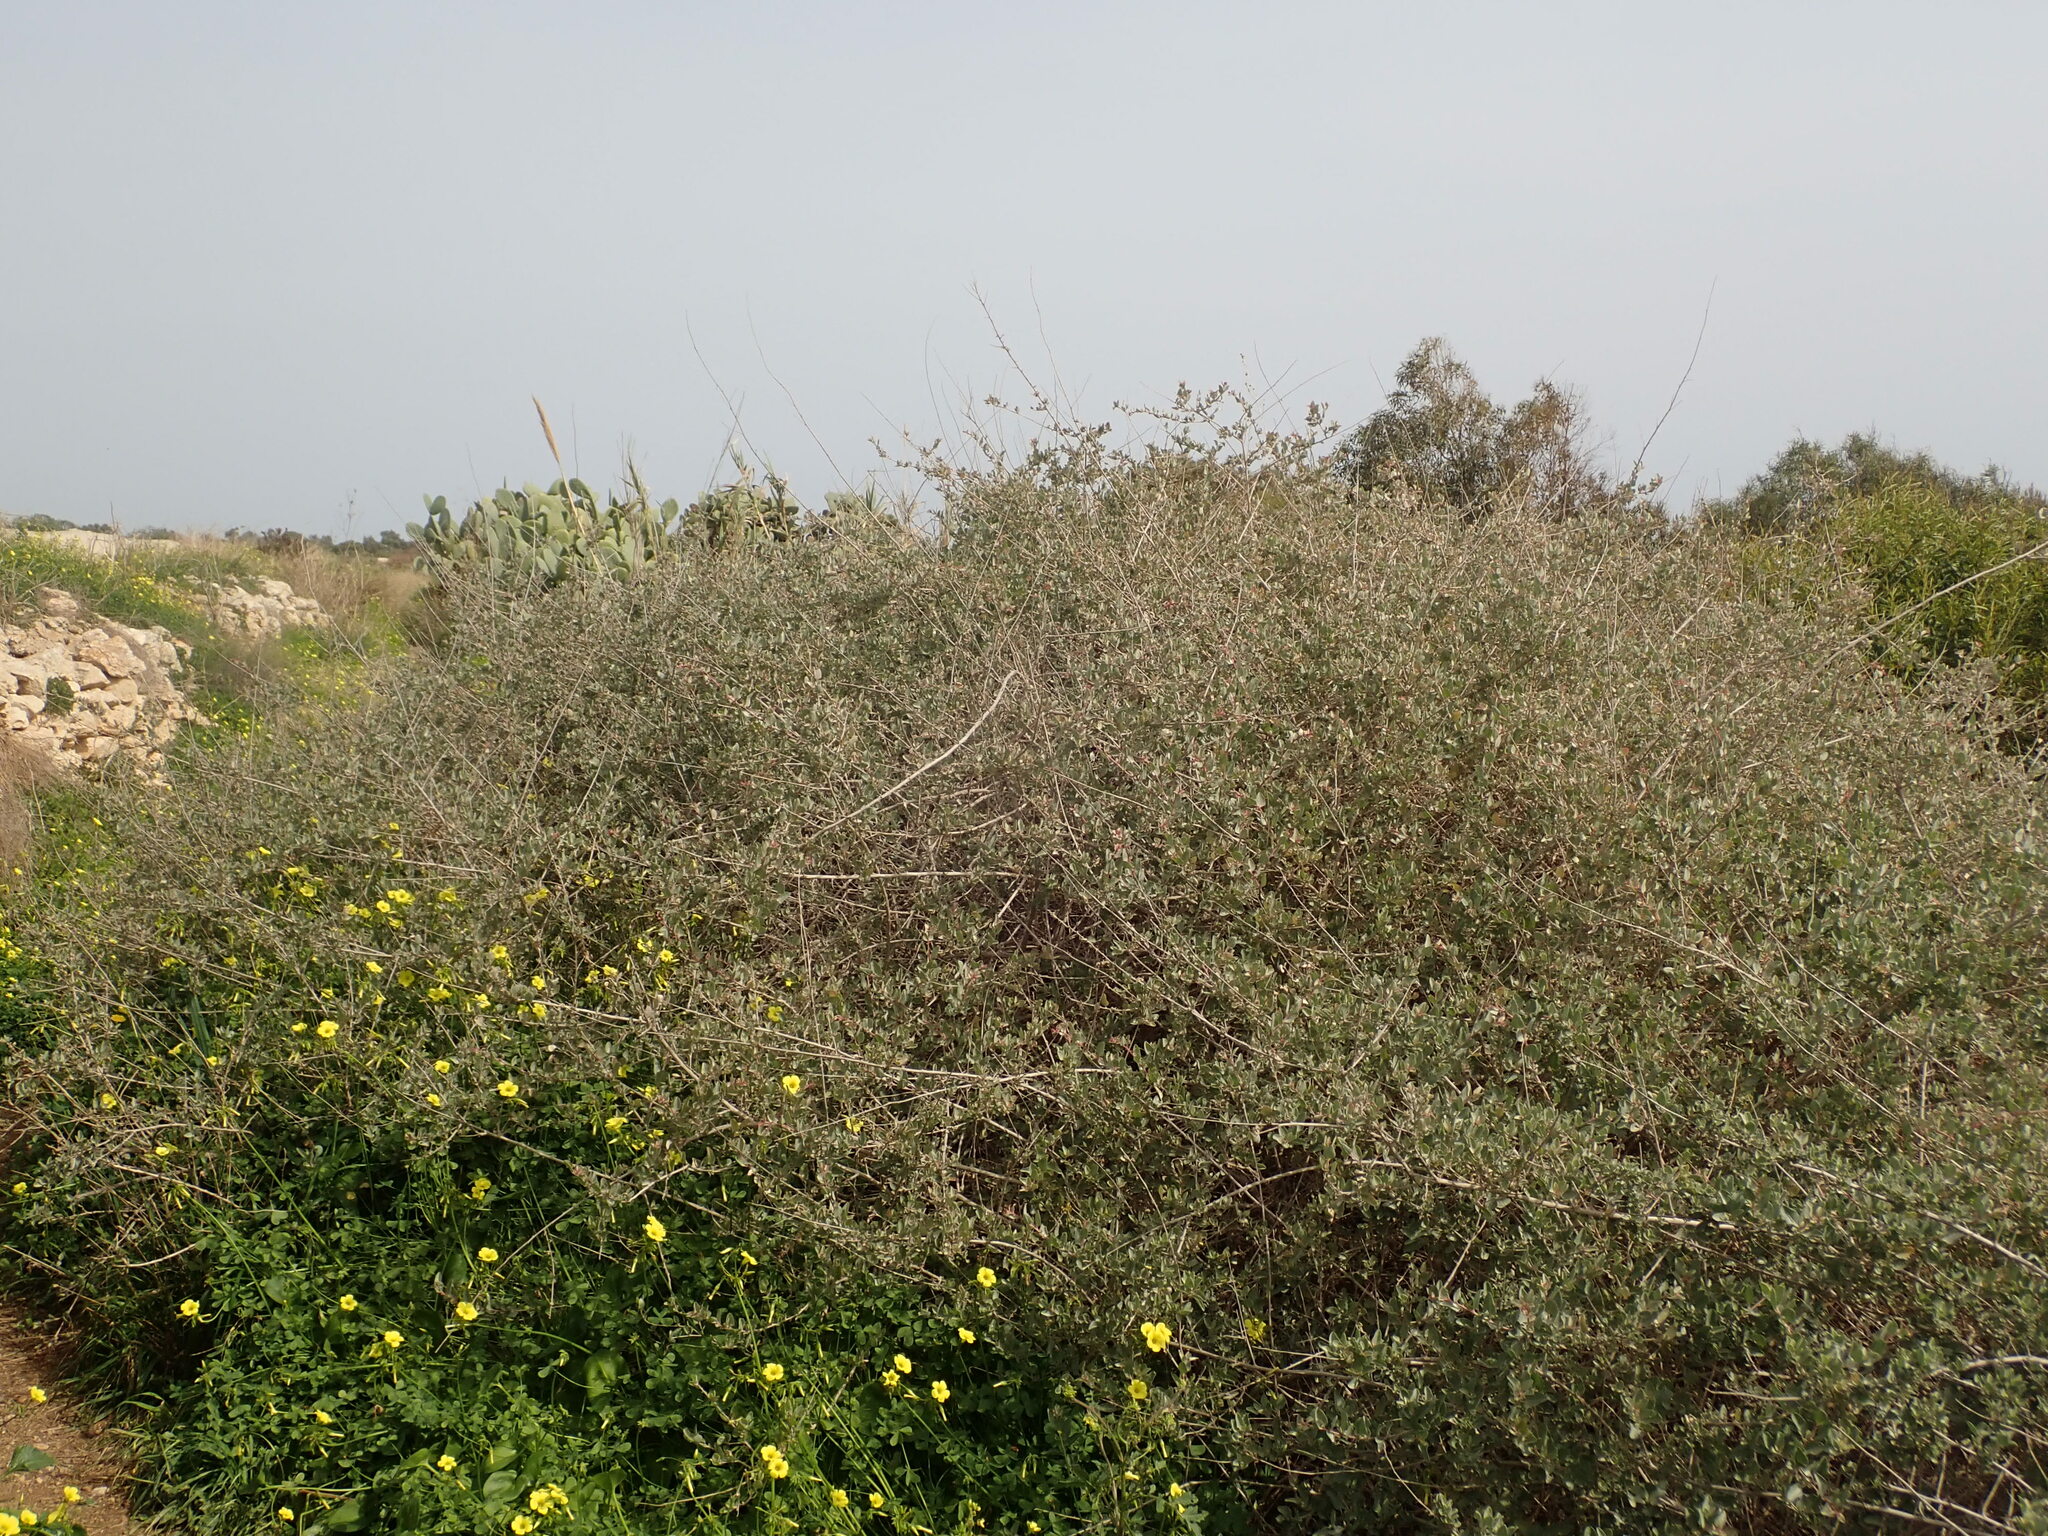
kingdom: Plantae
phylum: Tracheophyta
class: Magnoliopsida
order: Caryophyllales
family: Amaranthaceae
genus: Atriplex
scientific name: Atriplex halimus
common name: Shrubby orache
